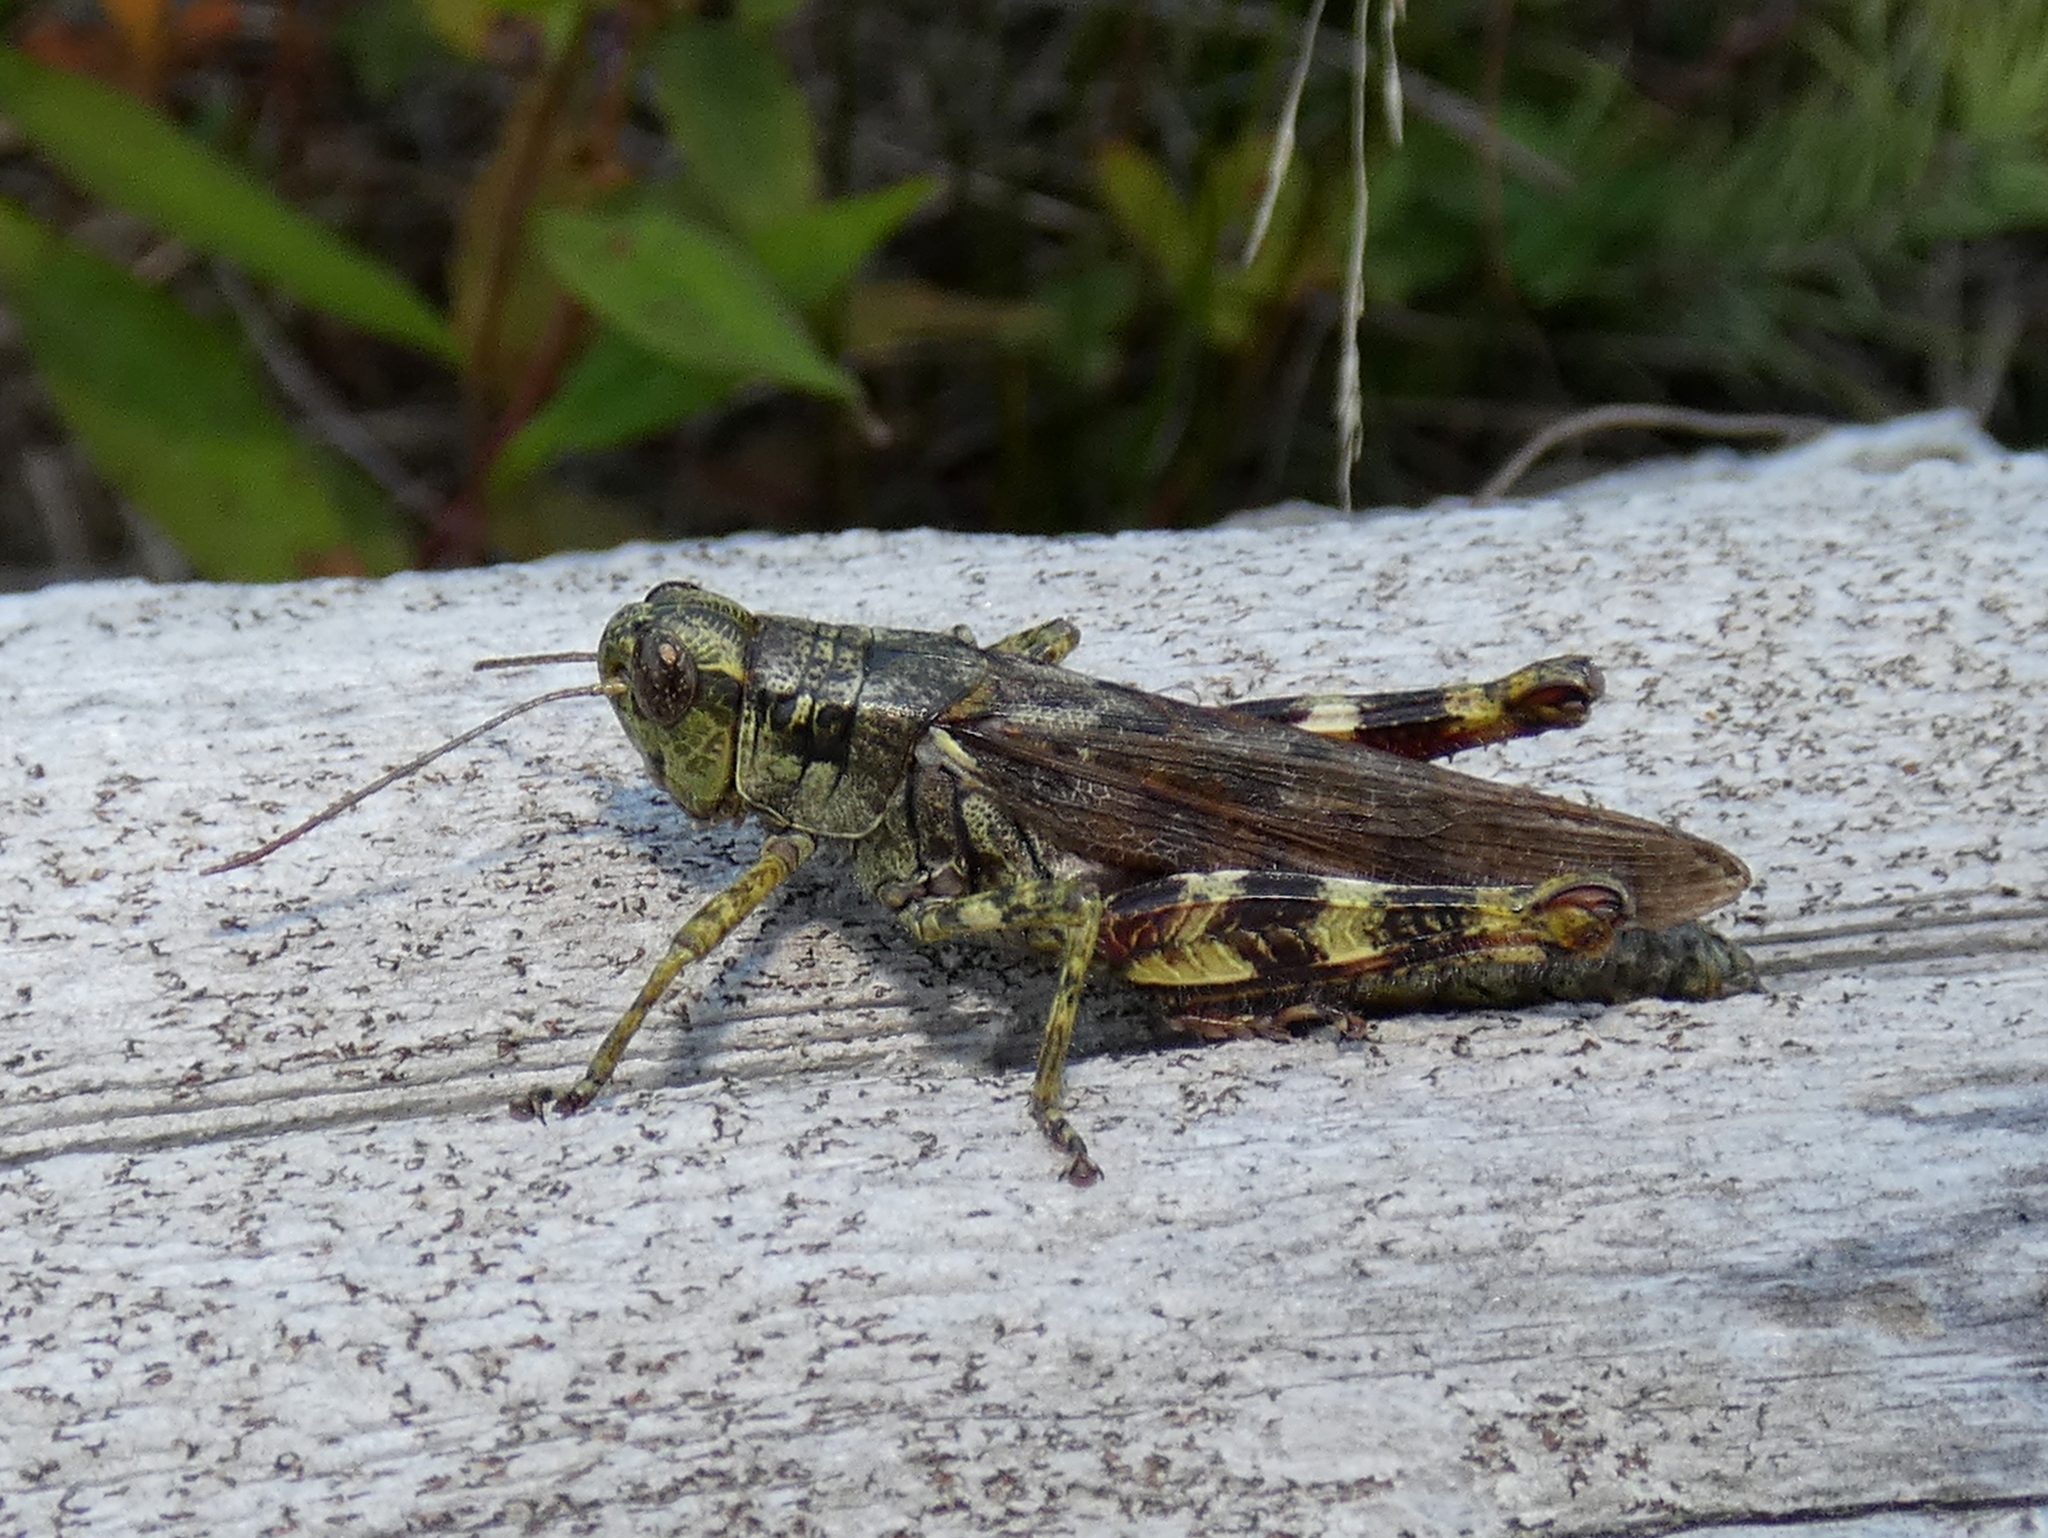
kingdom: Animalia
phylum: Arthropoda
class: Insecta
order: Orthoptera
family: Acrididae
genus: Melanoplus
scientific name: Melanoplus punctulatus
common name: Pine-tree spur-throat grasshopper
